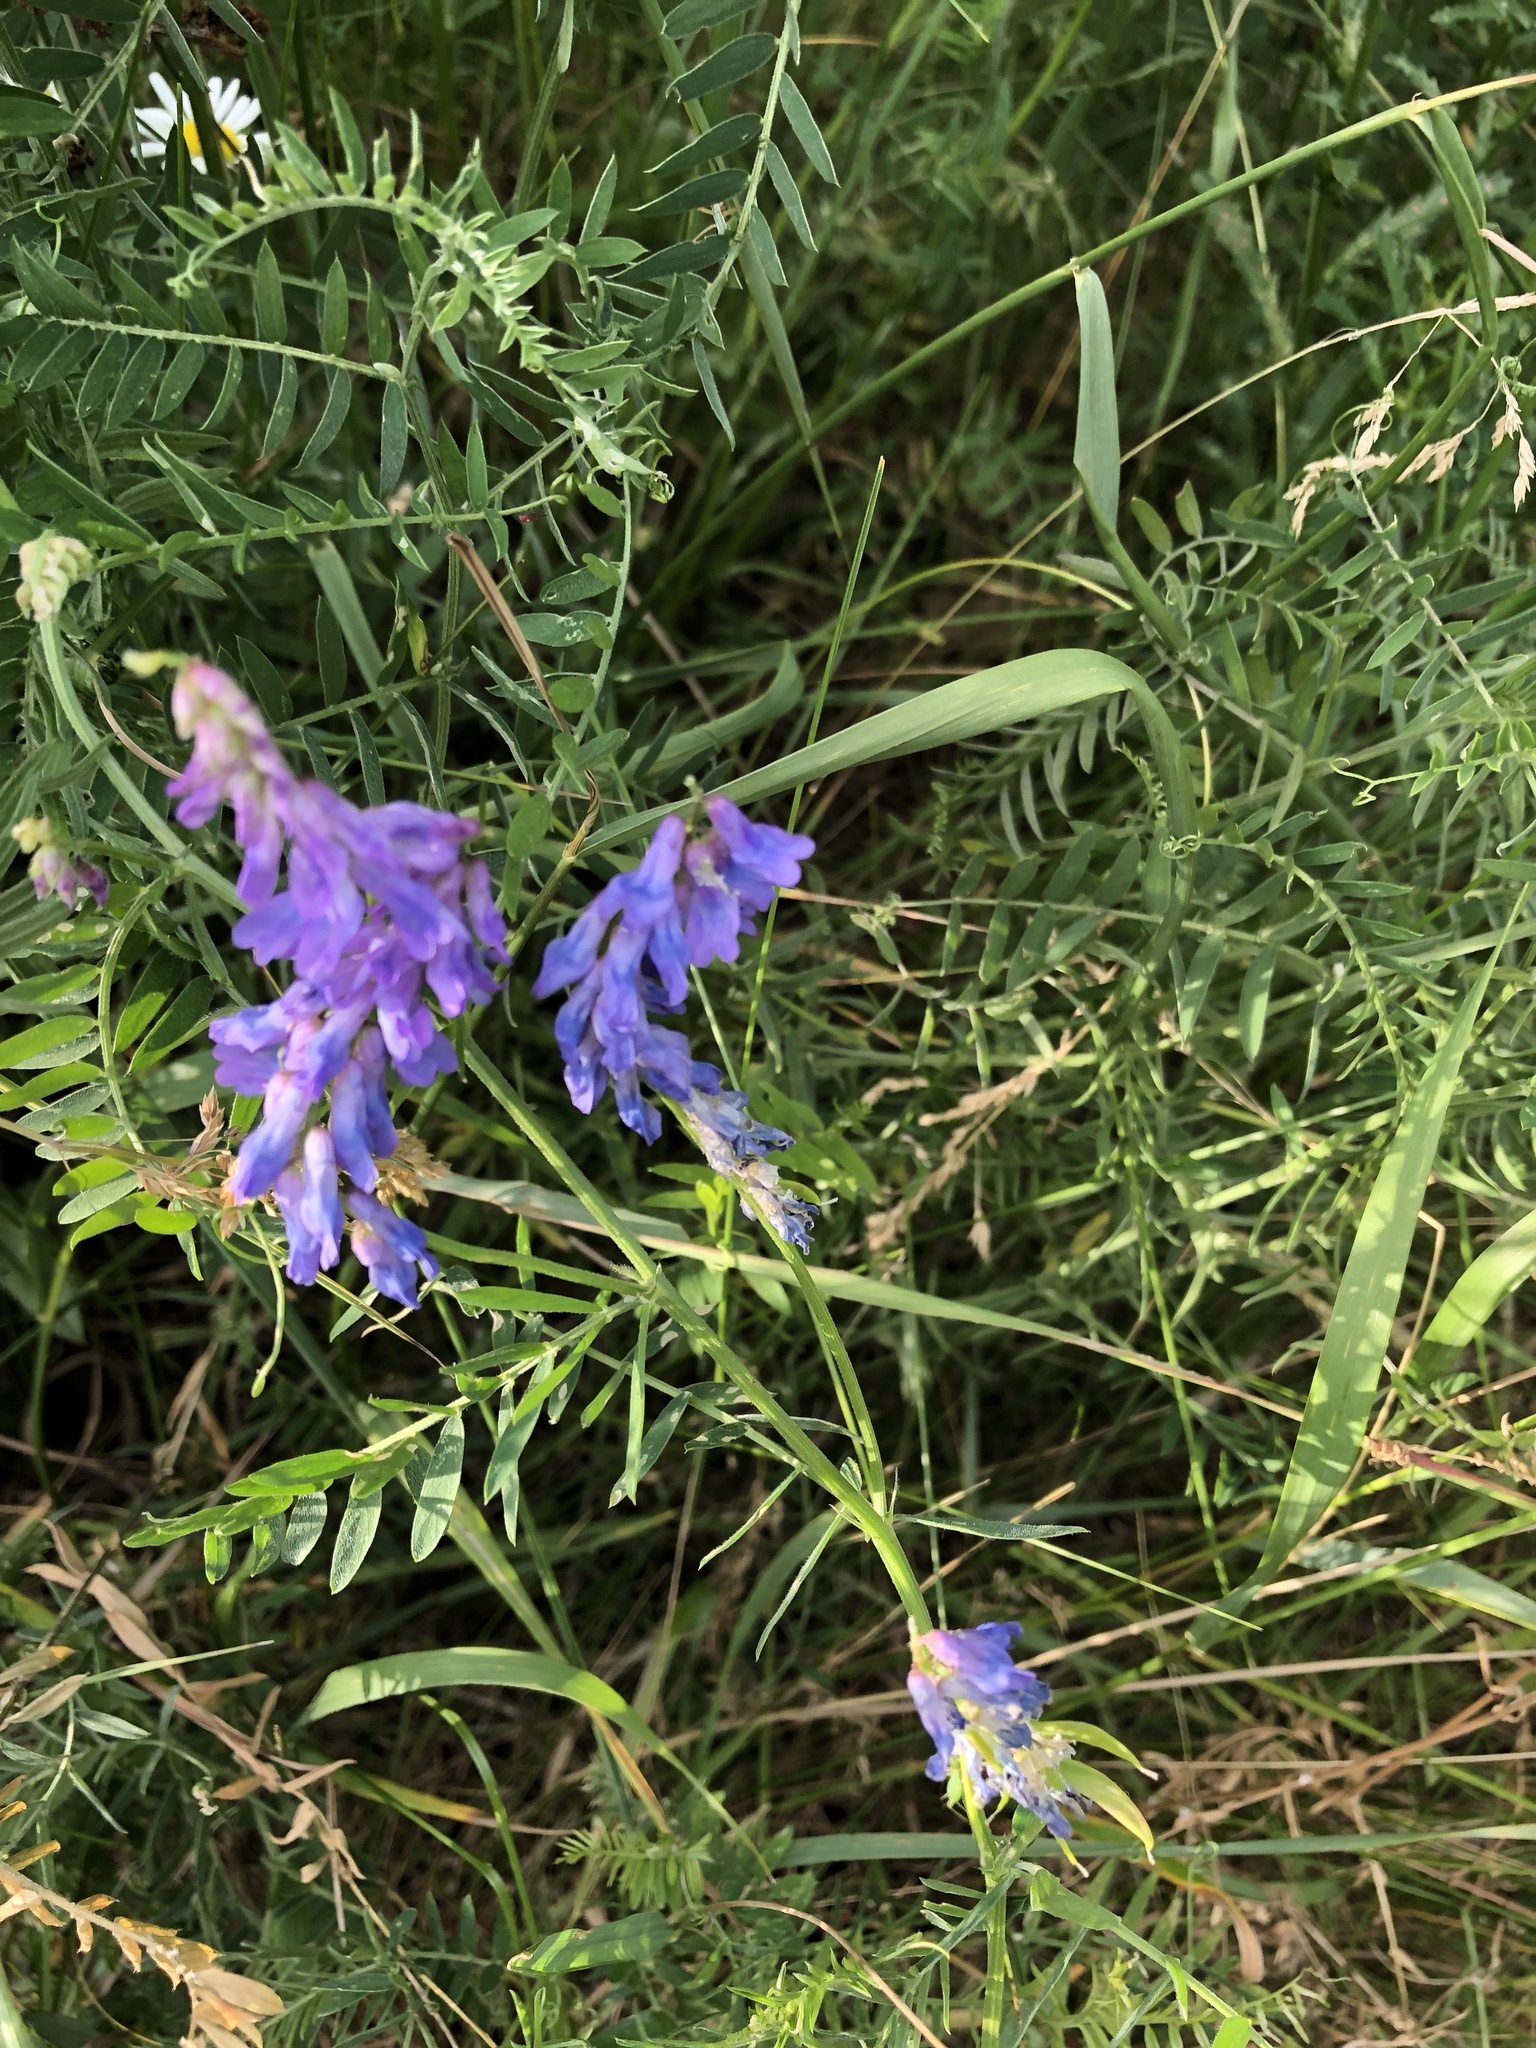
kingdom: Plantae
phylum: Tracheophyta
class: Magnoliopsida
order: Fabales
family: Fabaceae
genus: Vicia
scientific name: Vicia cracca
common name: Bird vetch
